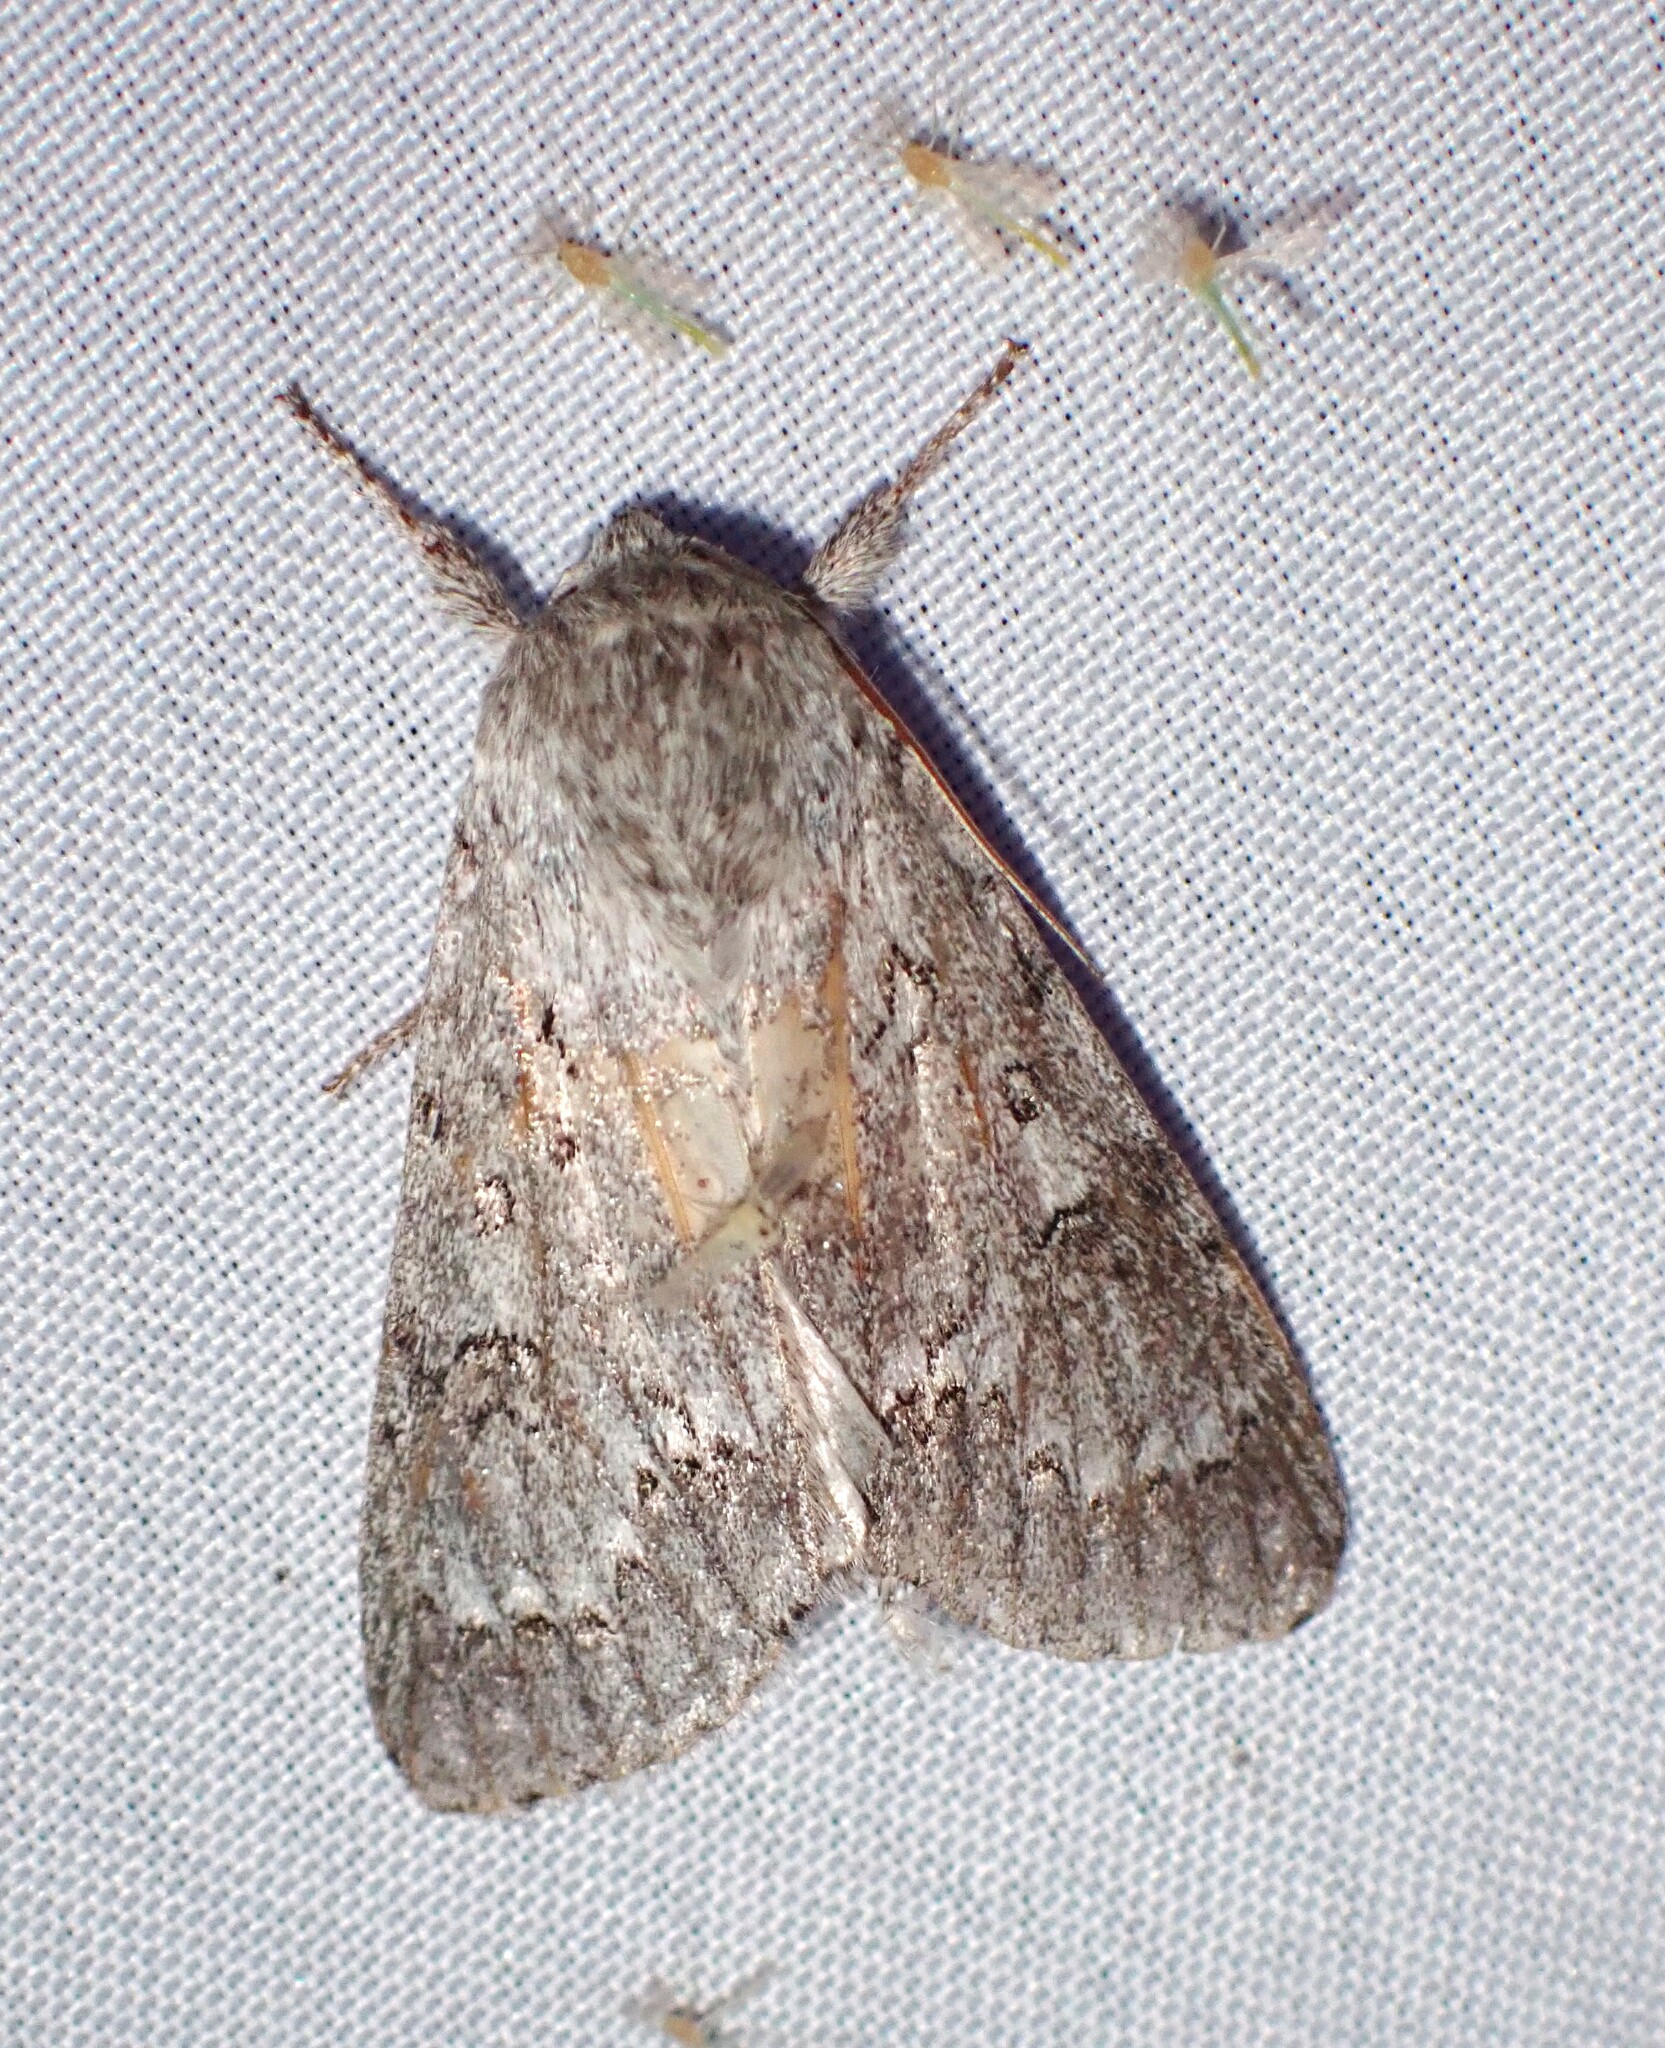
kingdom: Animalia
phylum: Arthropoda
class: Insecta
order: Lepidoptera
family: Noctuidae
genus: Acronicta
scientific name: Acronicta insita
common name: Large gray dagger
